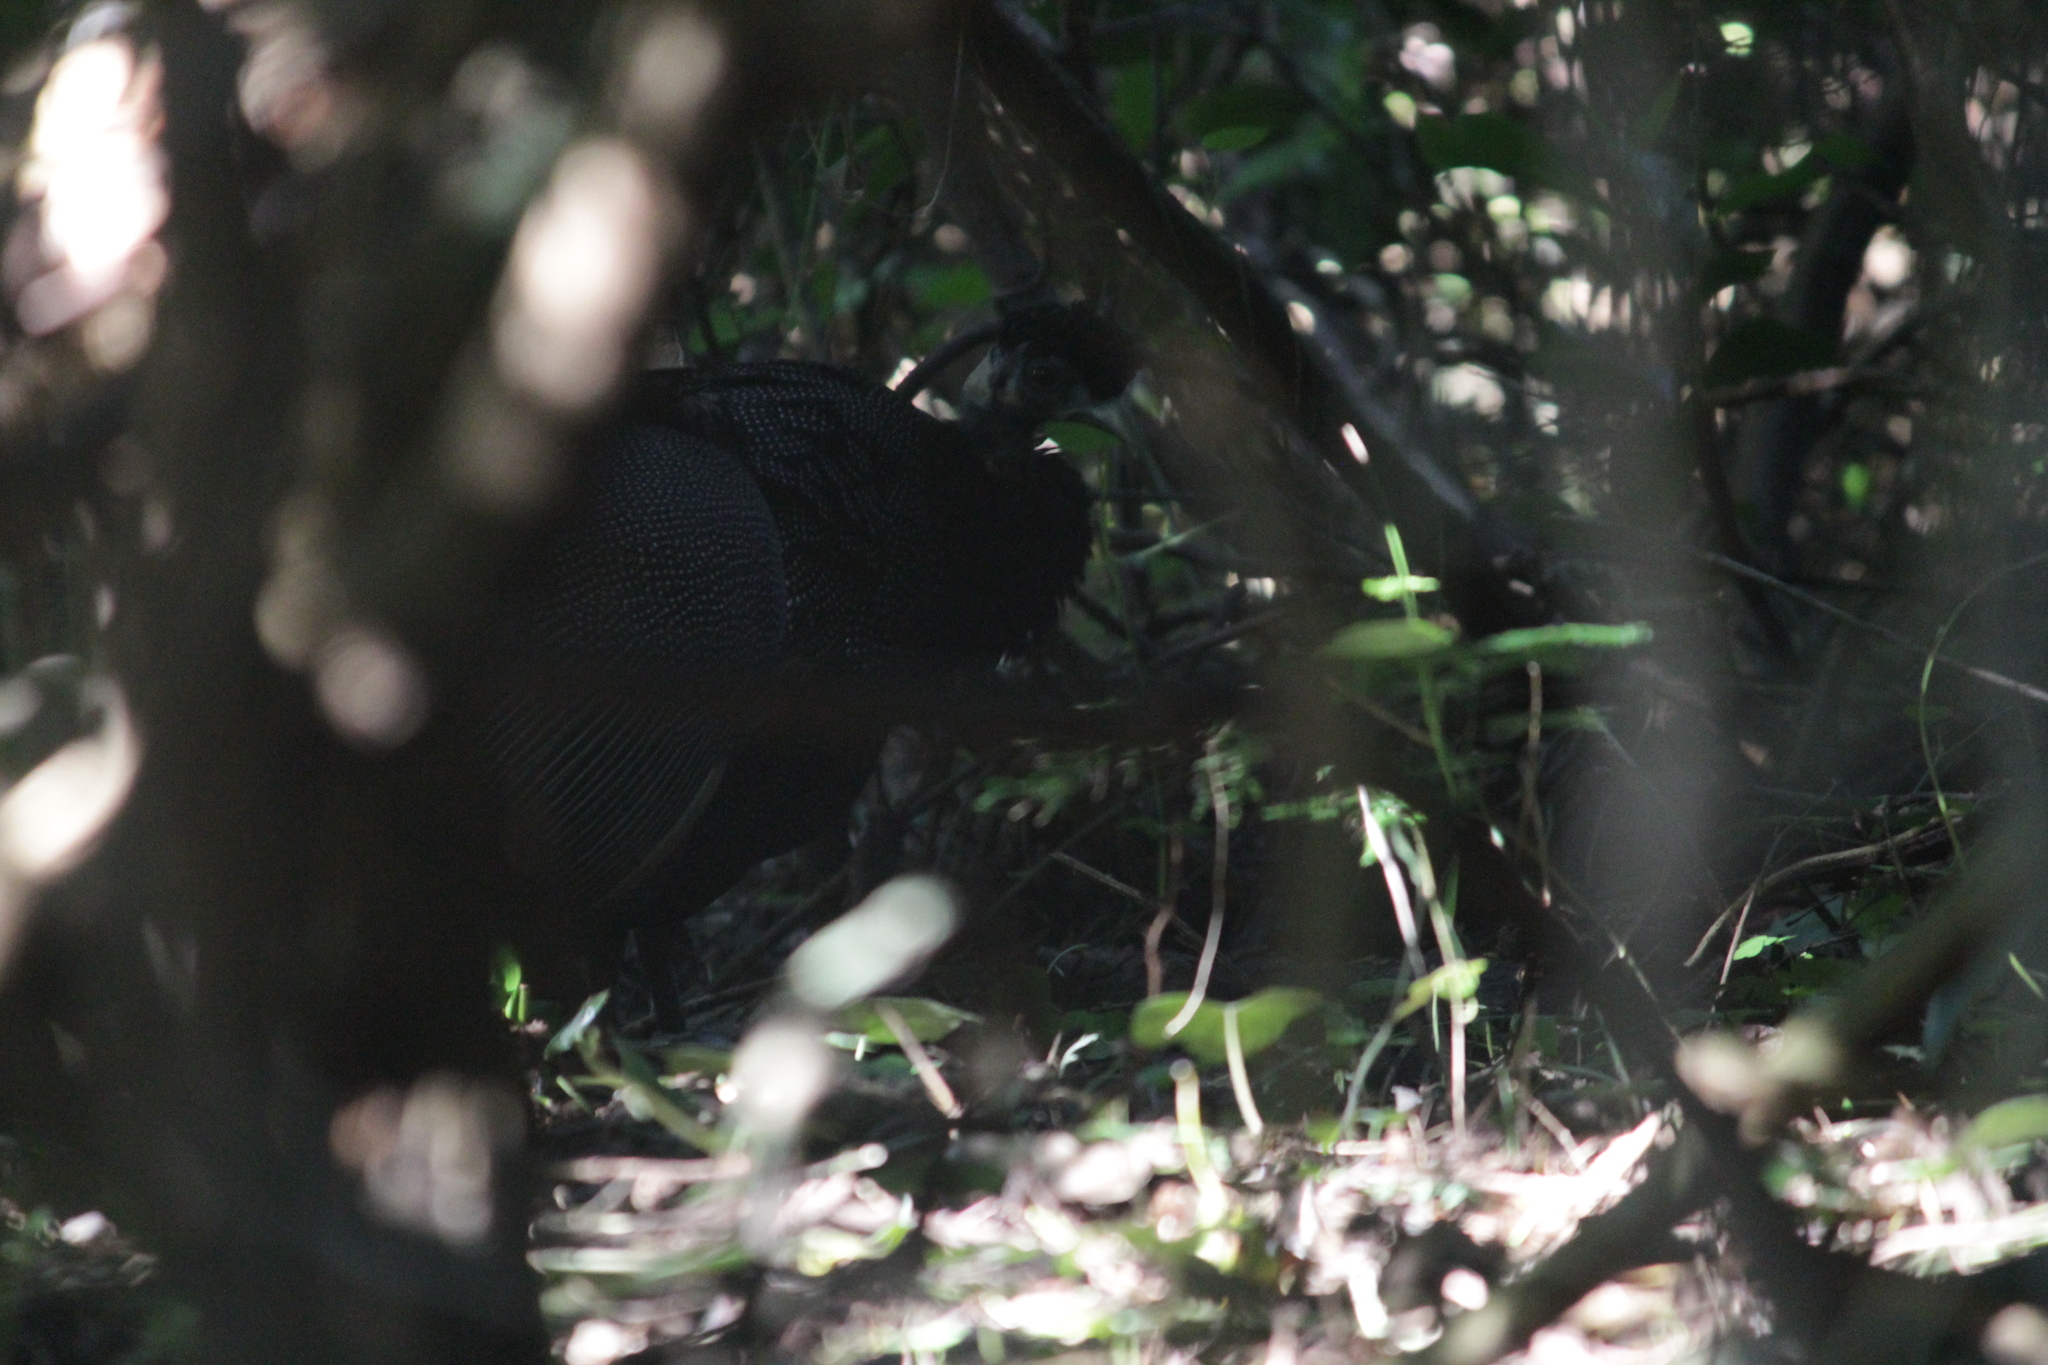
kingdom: Animalia
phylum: Chordata
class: Aves
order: Galliformes
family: Numididae
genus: Guttera
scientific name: Guttera pucherani
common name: Crested guineafowl
